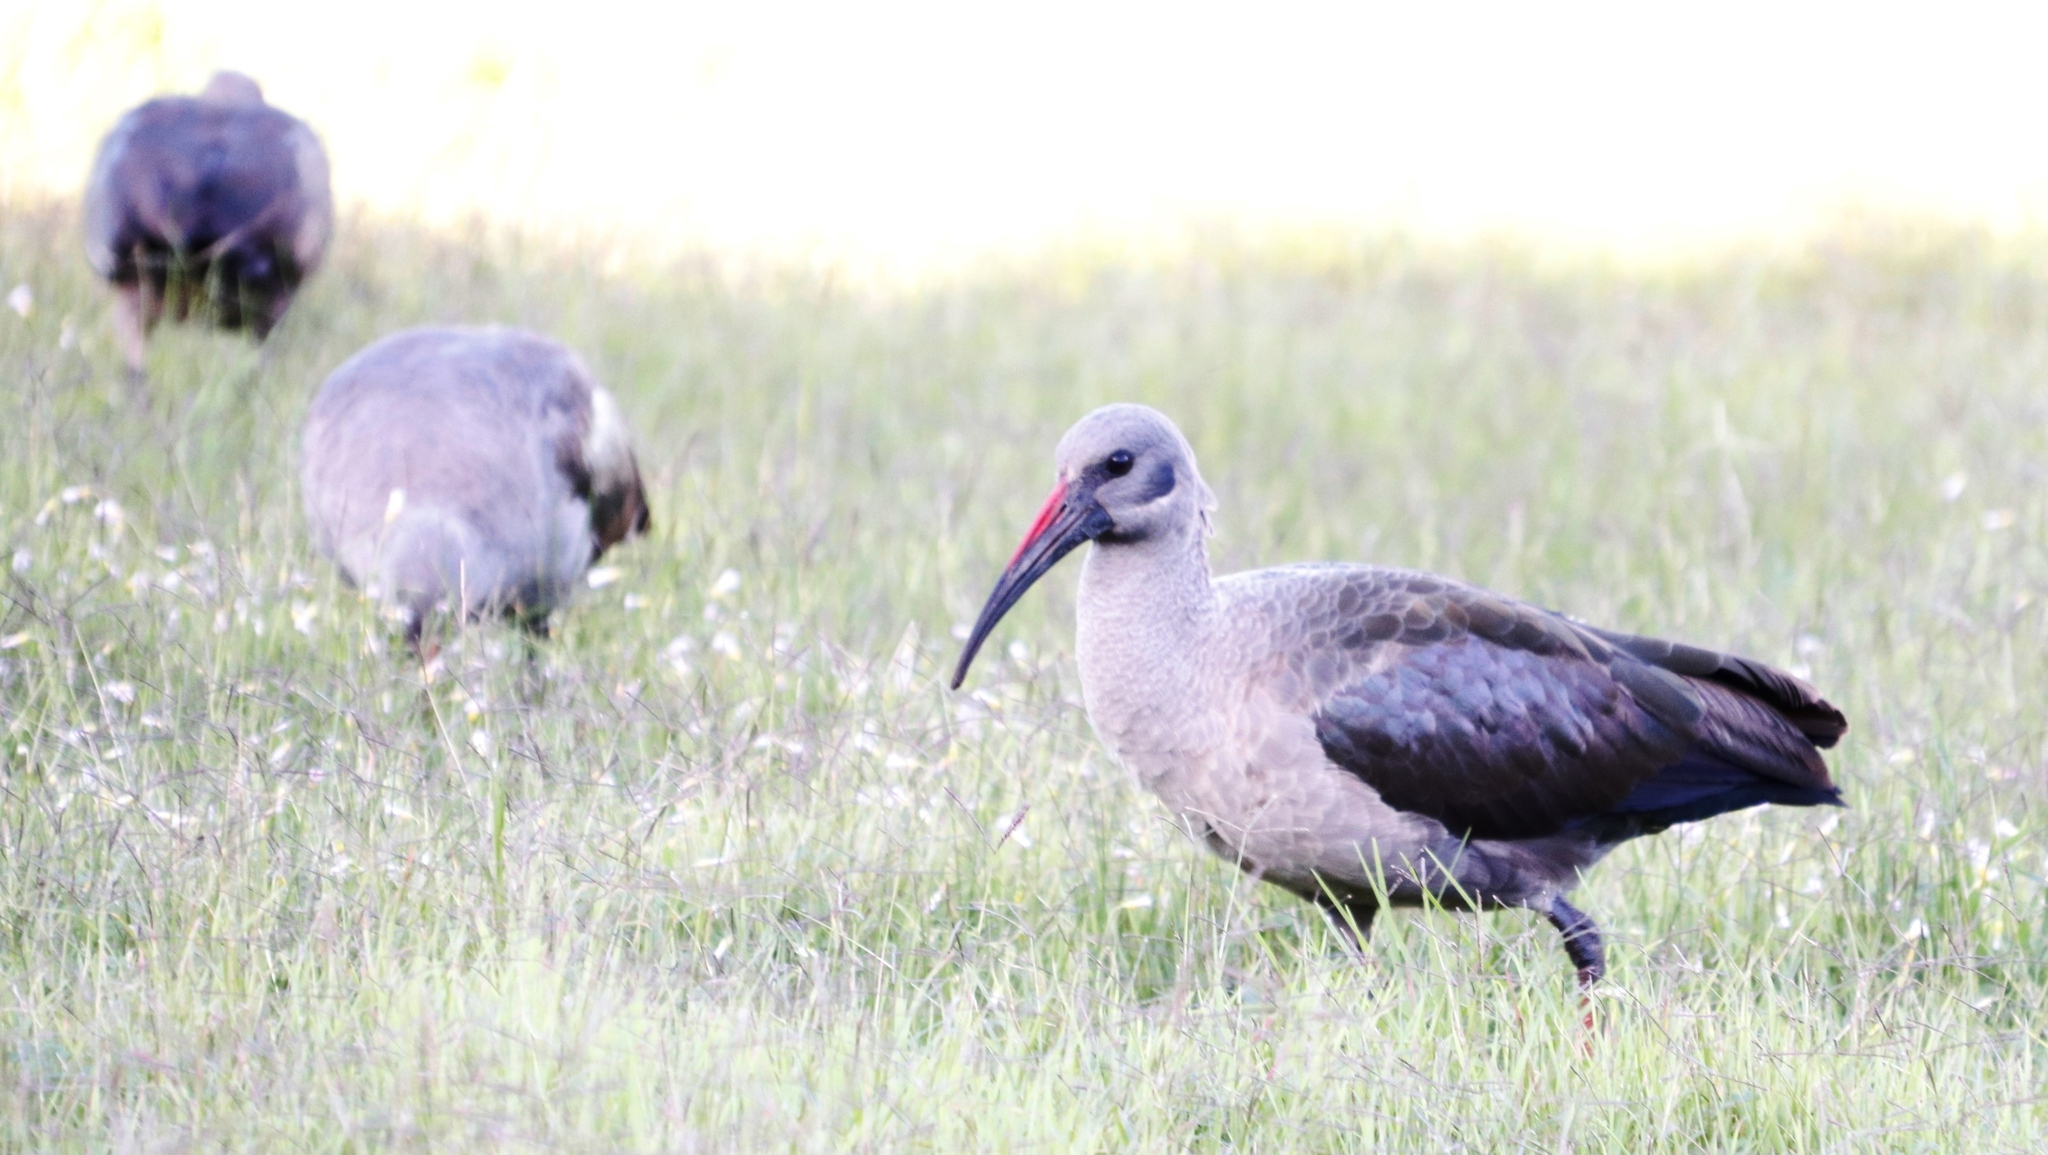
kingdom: Animalia
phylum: Chordata
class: Aves
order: Pelecaniformes
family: Threskiornithidae
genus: Bostrychia
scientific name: Bostrychia hagedash
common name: Hadada ibis
